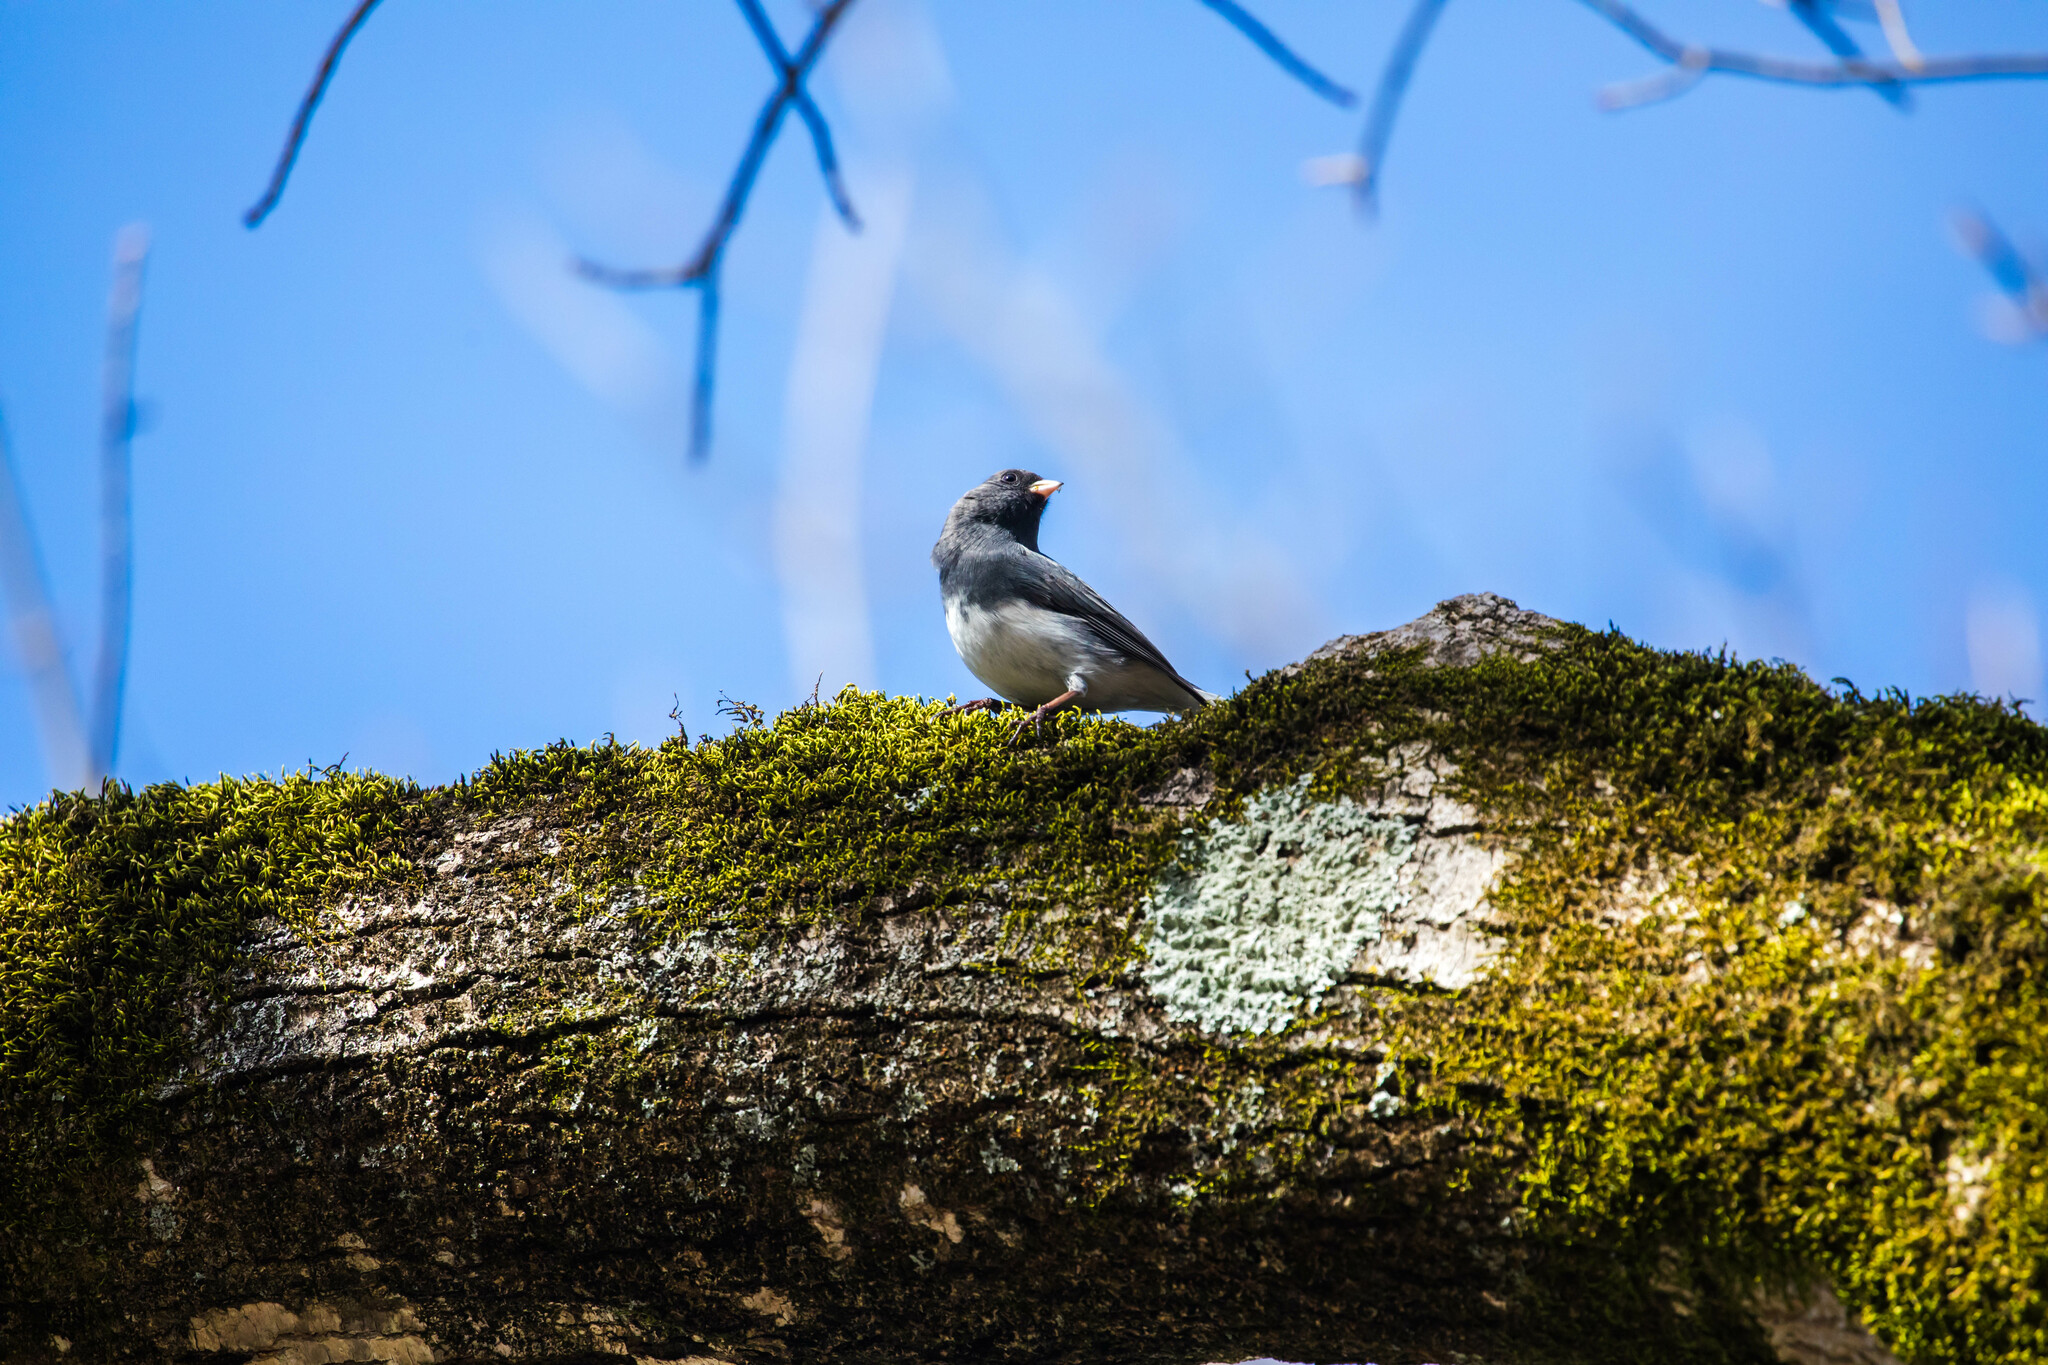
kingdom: Animalia
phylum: Chordata
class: Aves
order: Passeriformes
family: Passerellidae
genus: Junco
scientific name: Junco hyemalis
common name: Dark-eyed junco
